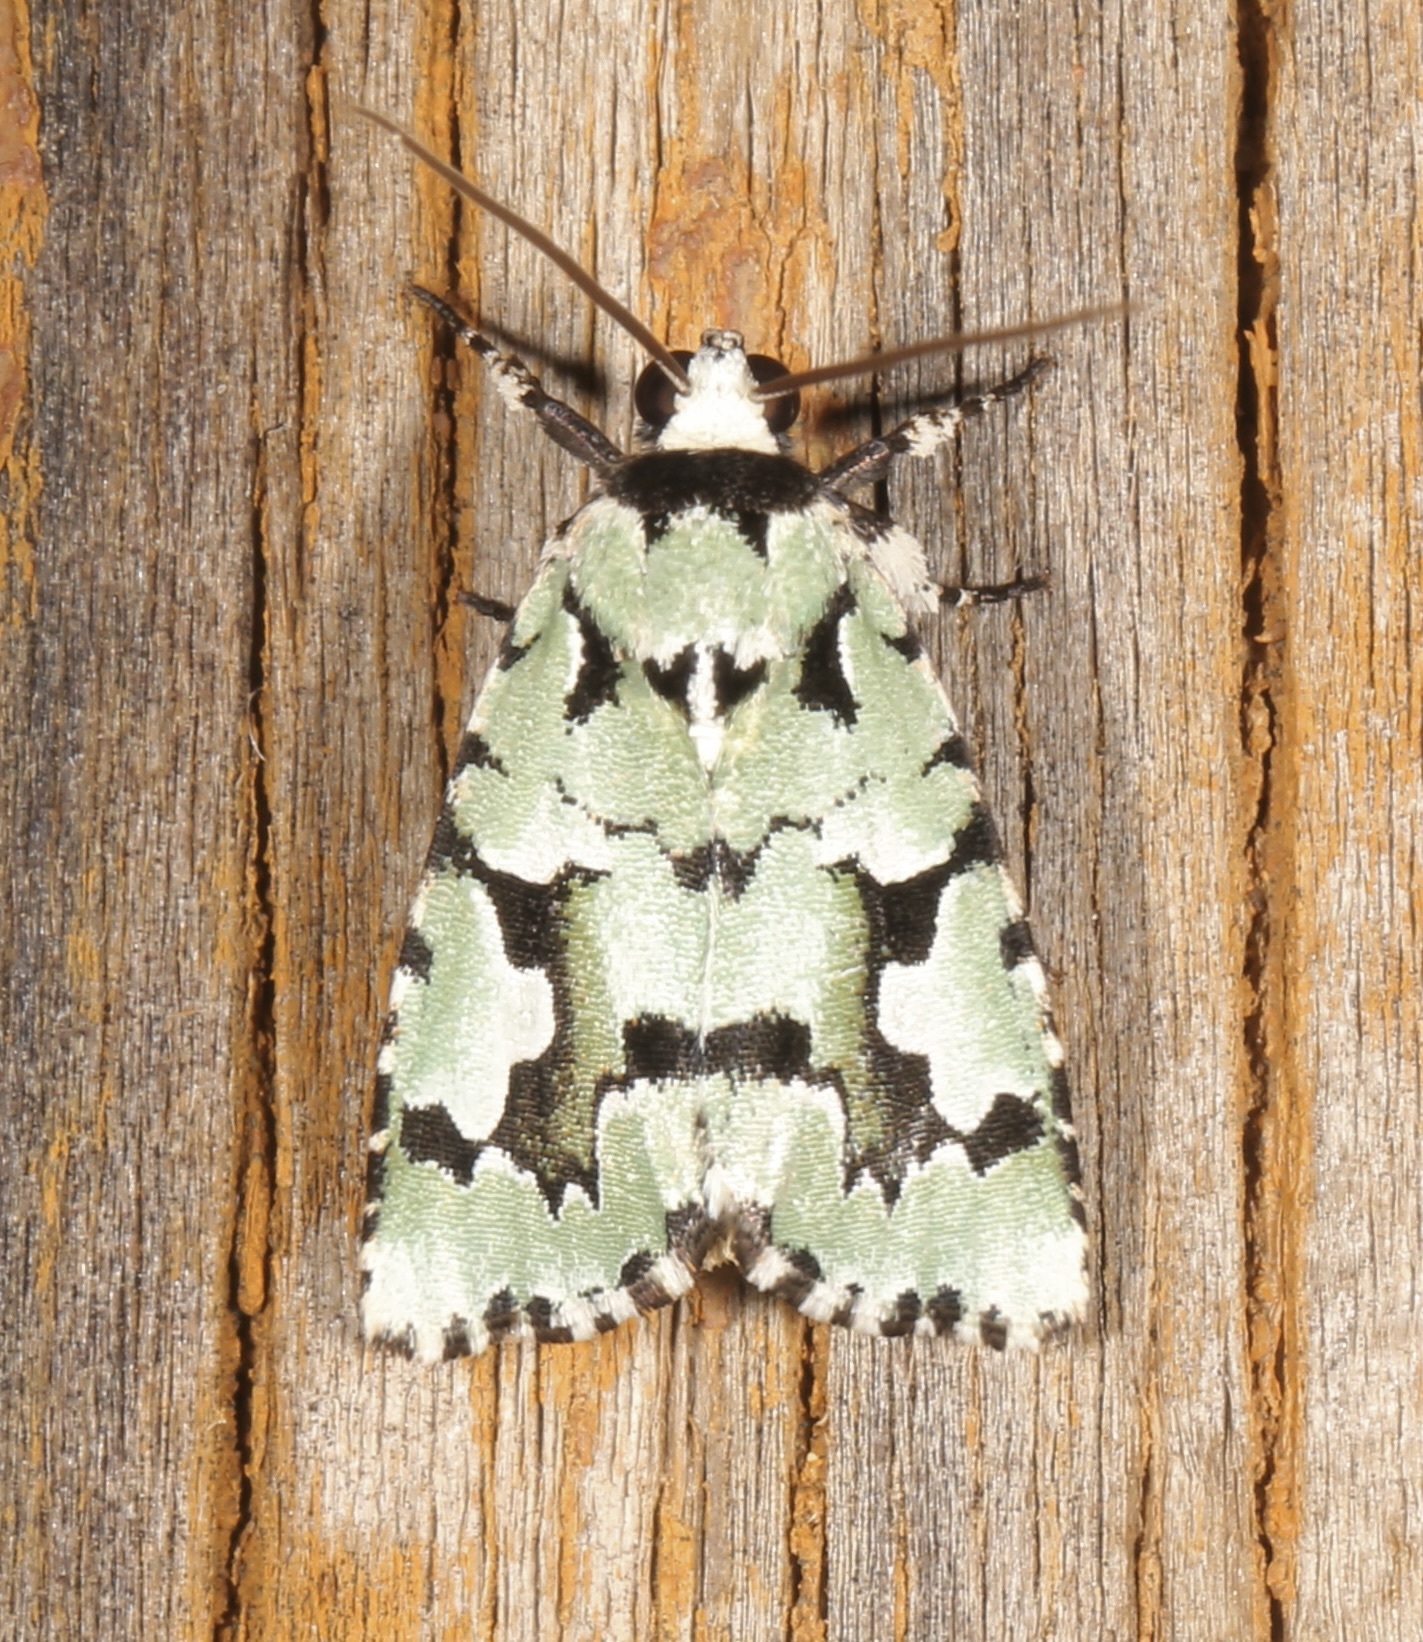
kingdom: Animalia
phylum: Arthropoda
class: Insecta
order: Lepidoptera
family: Noctuidae
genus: Emarginea
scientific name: Emarginea dulcinea
